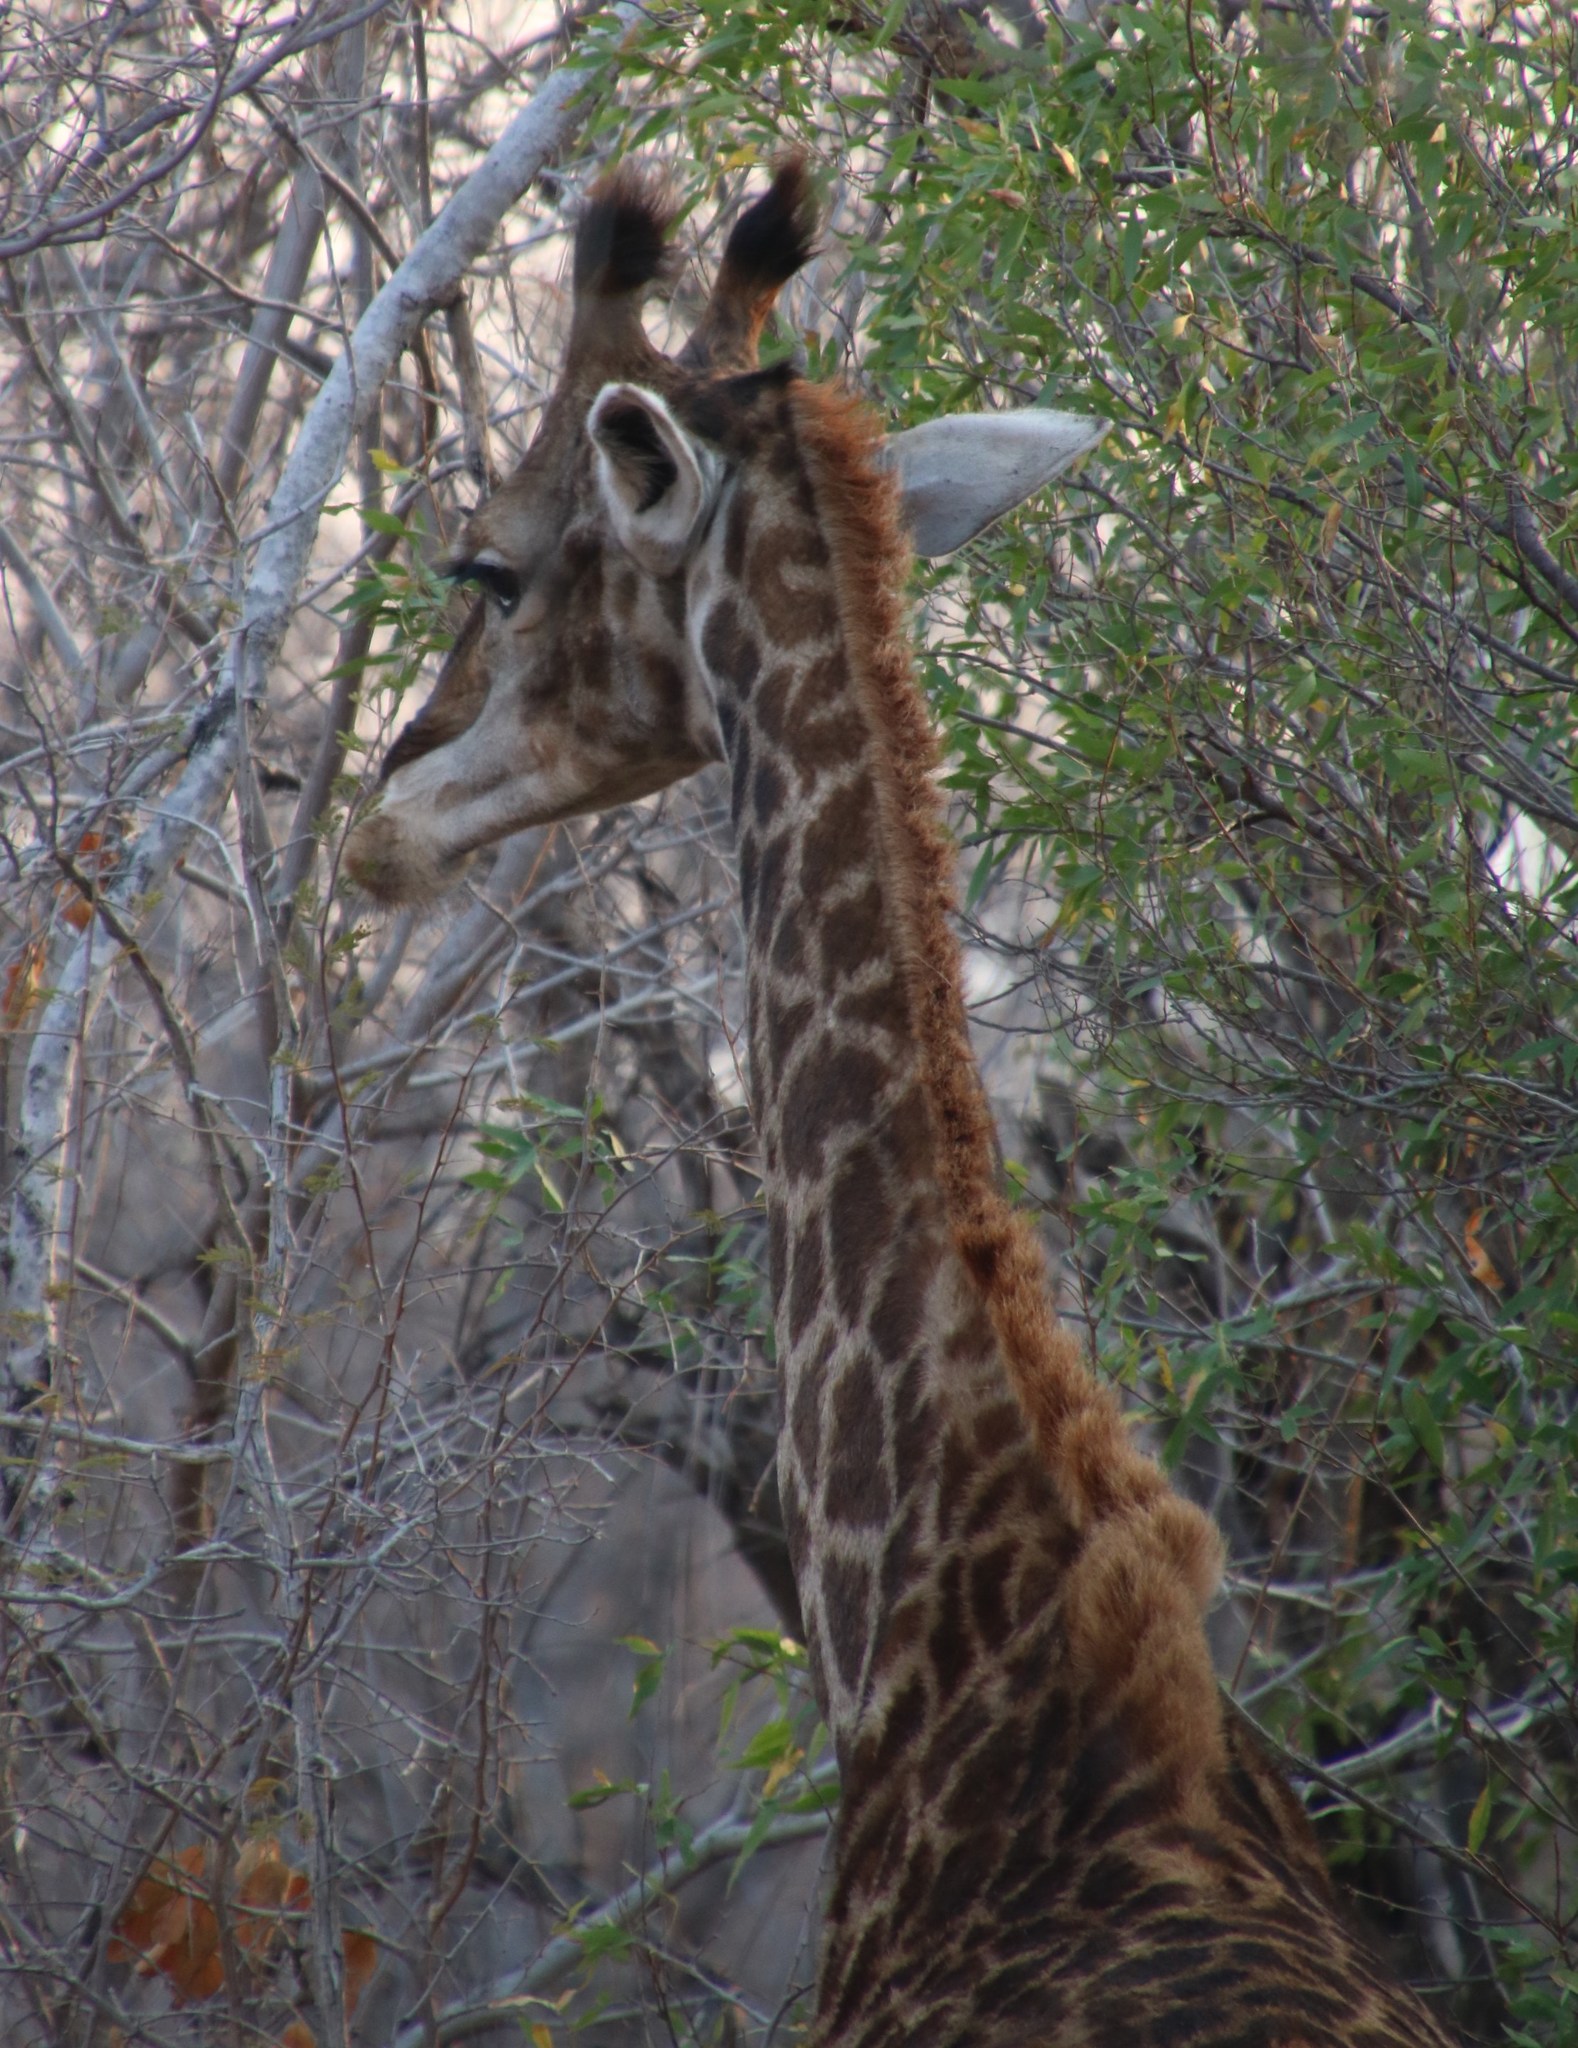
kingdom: Animalia
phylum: Chordata
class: Mammalia
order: Artiodactyla
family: Giraffidae
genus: Giraffa
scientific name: Giraffa giraffa
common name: Southern giraffe
